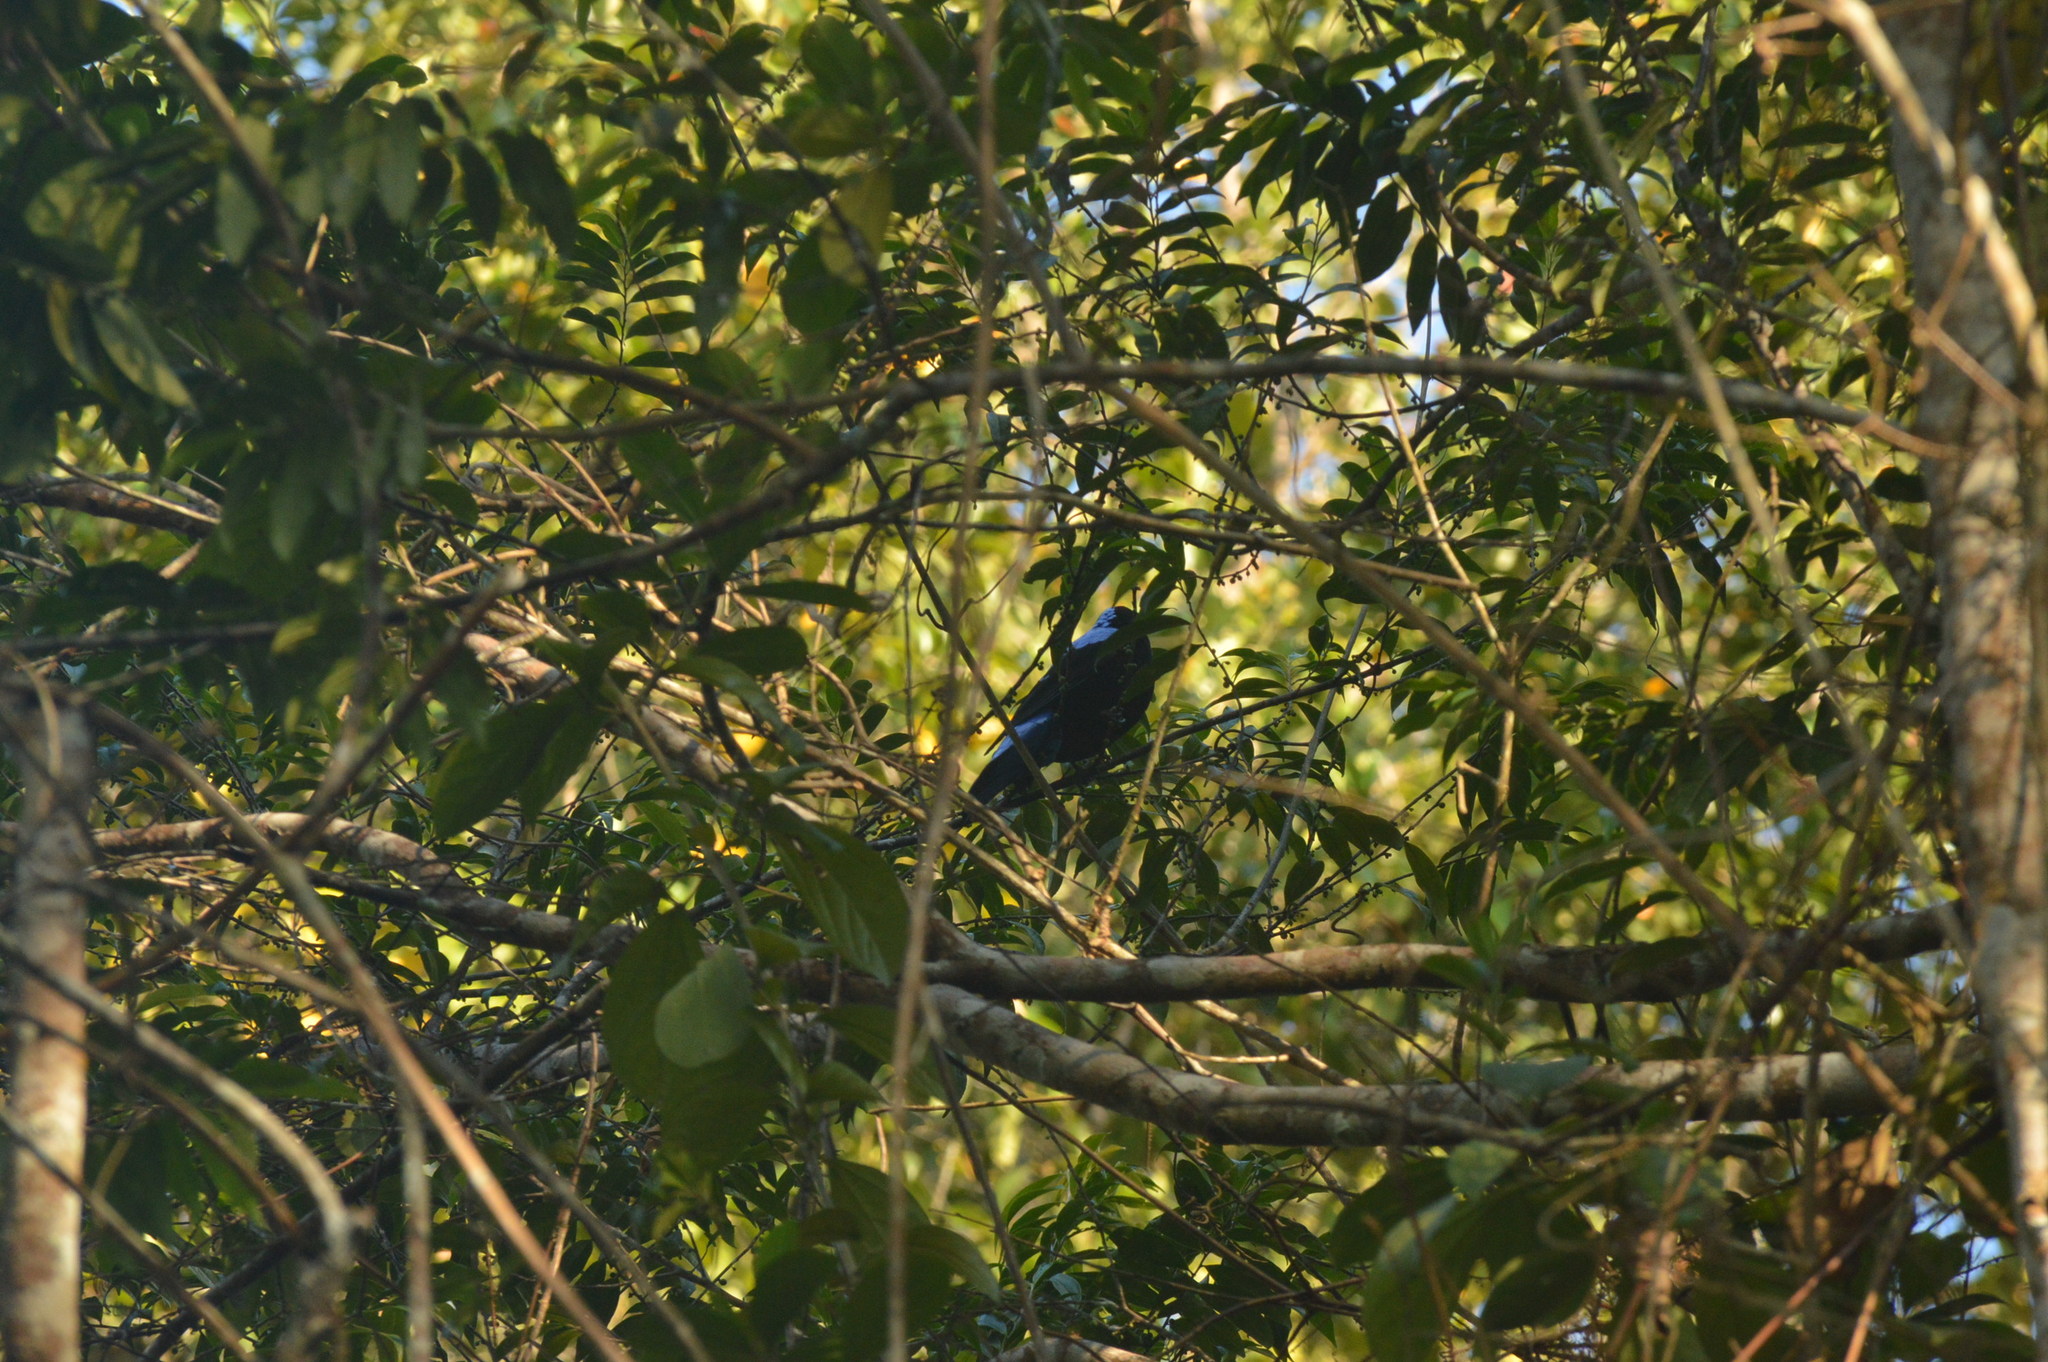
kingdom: Animalia
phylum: Chordata
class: Aves
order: Passeriformes
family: Irenidae
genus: Irena
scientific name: Irena puella
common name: Asian fairy-bluebird
